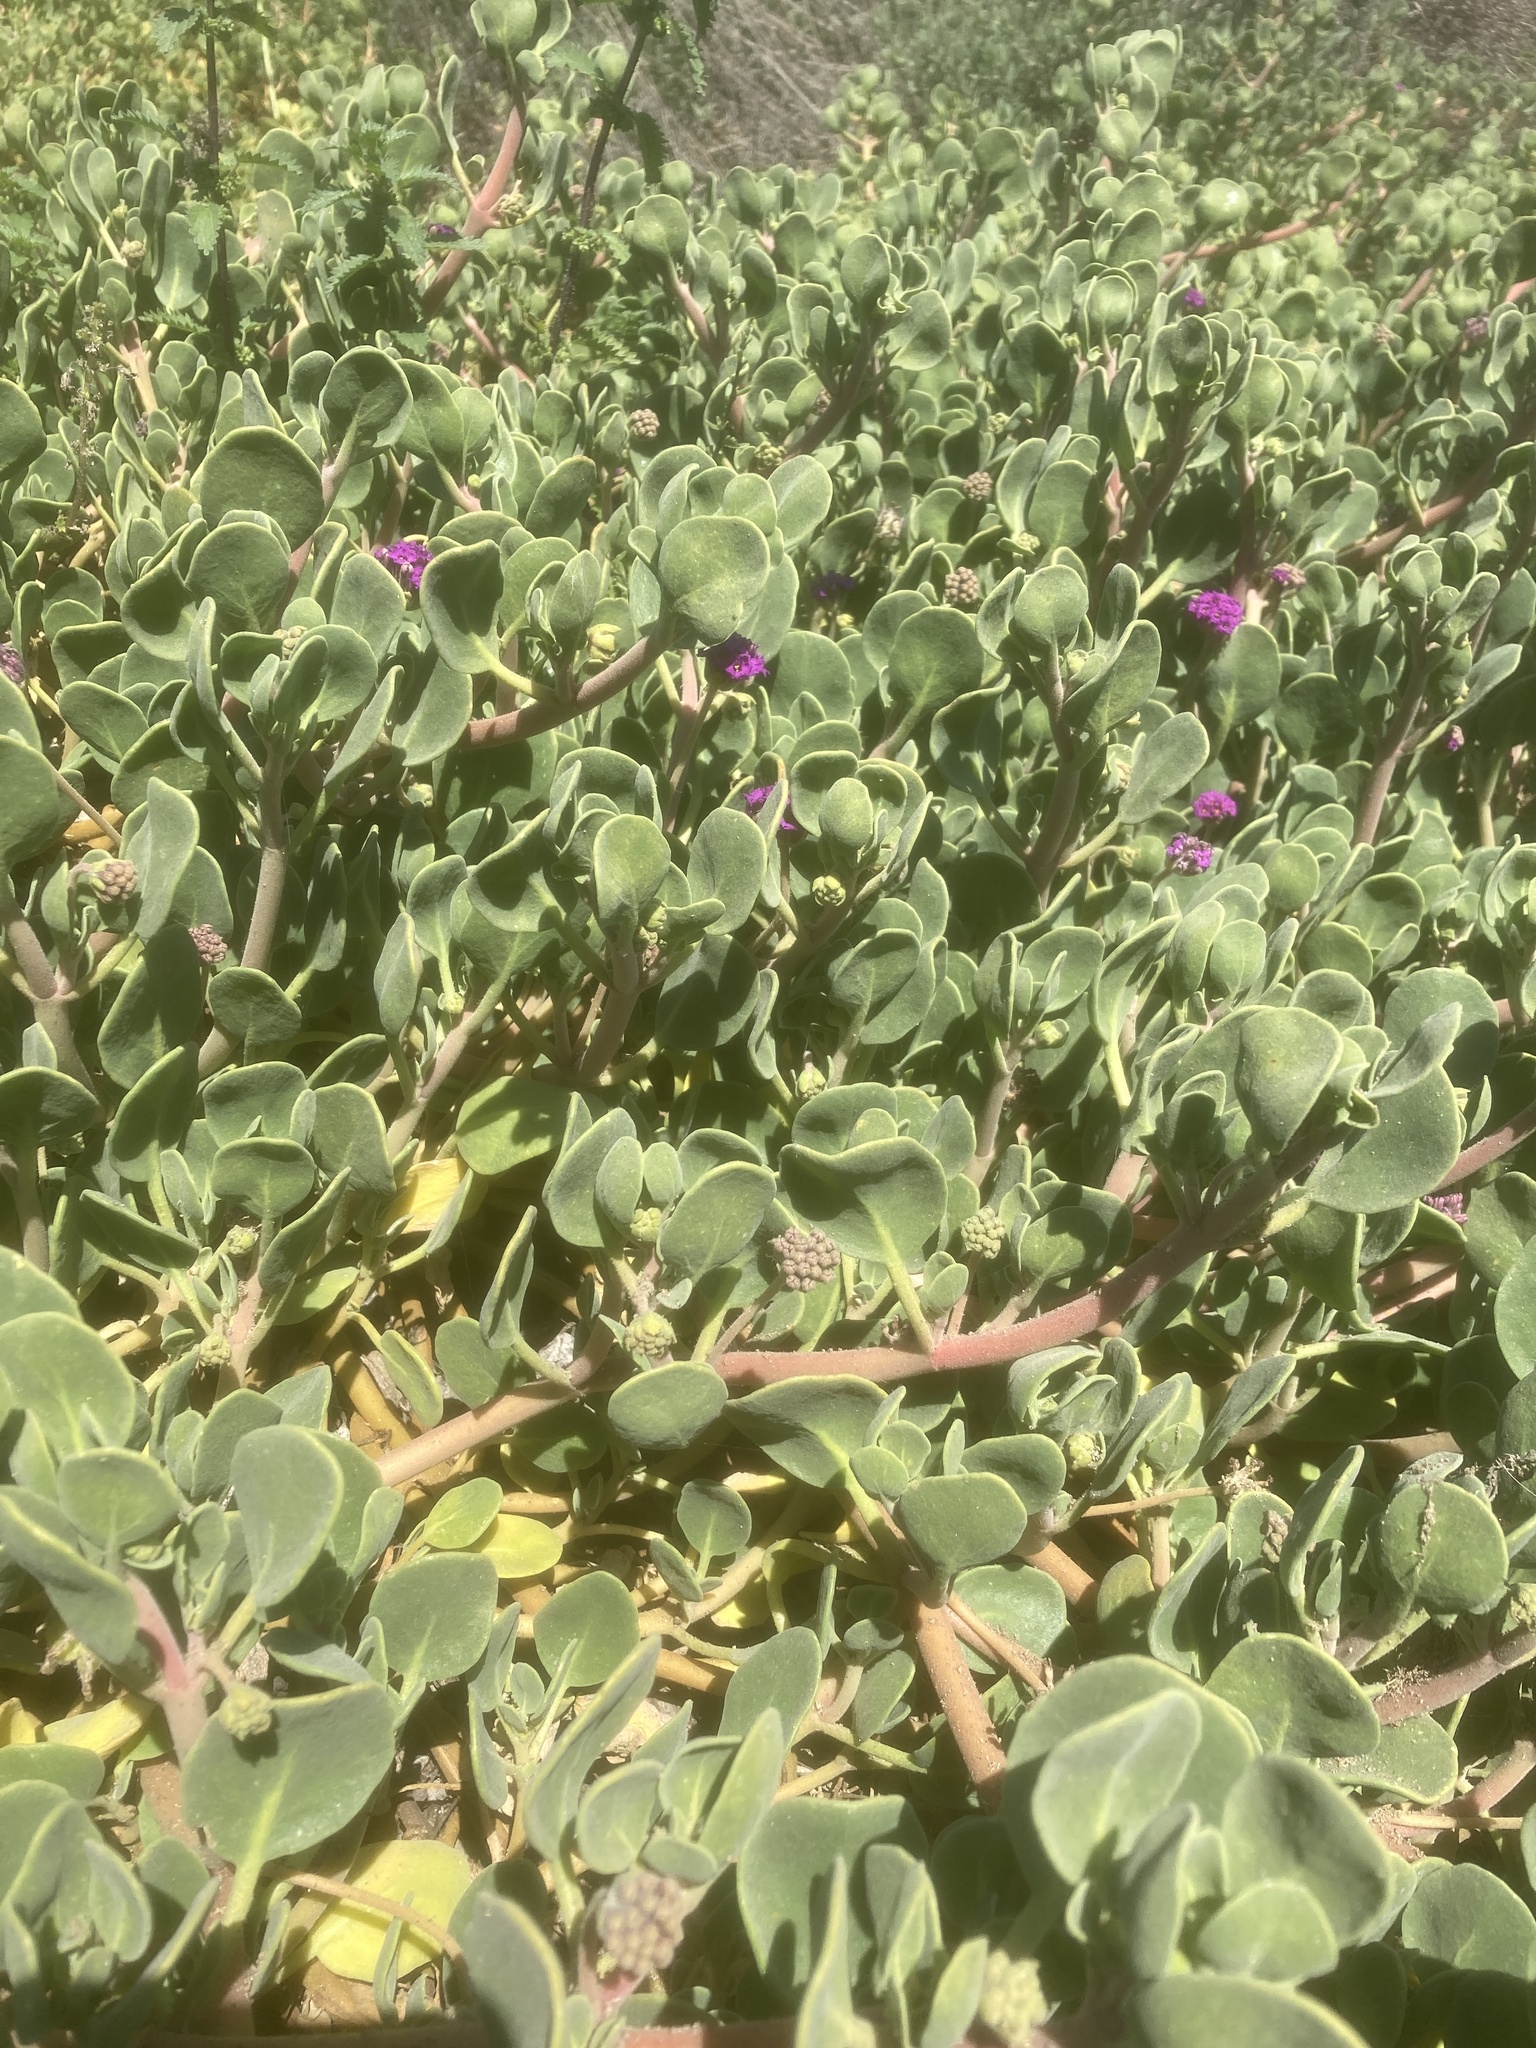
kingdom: Plantae
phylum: Tracheophyta
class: Magnoliopsida
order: Caryophyllales
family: Nyctaginaceae
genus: Abronia
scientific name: Abronia maritima
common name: Red sand-verbena
